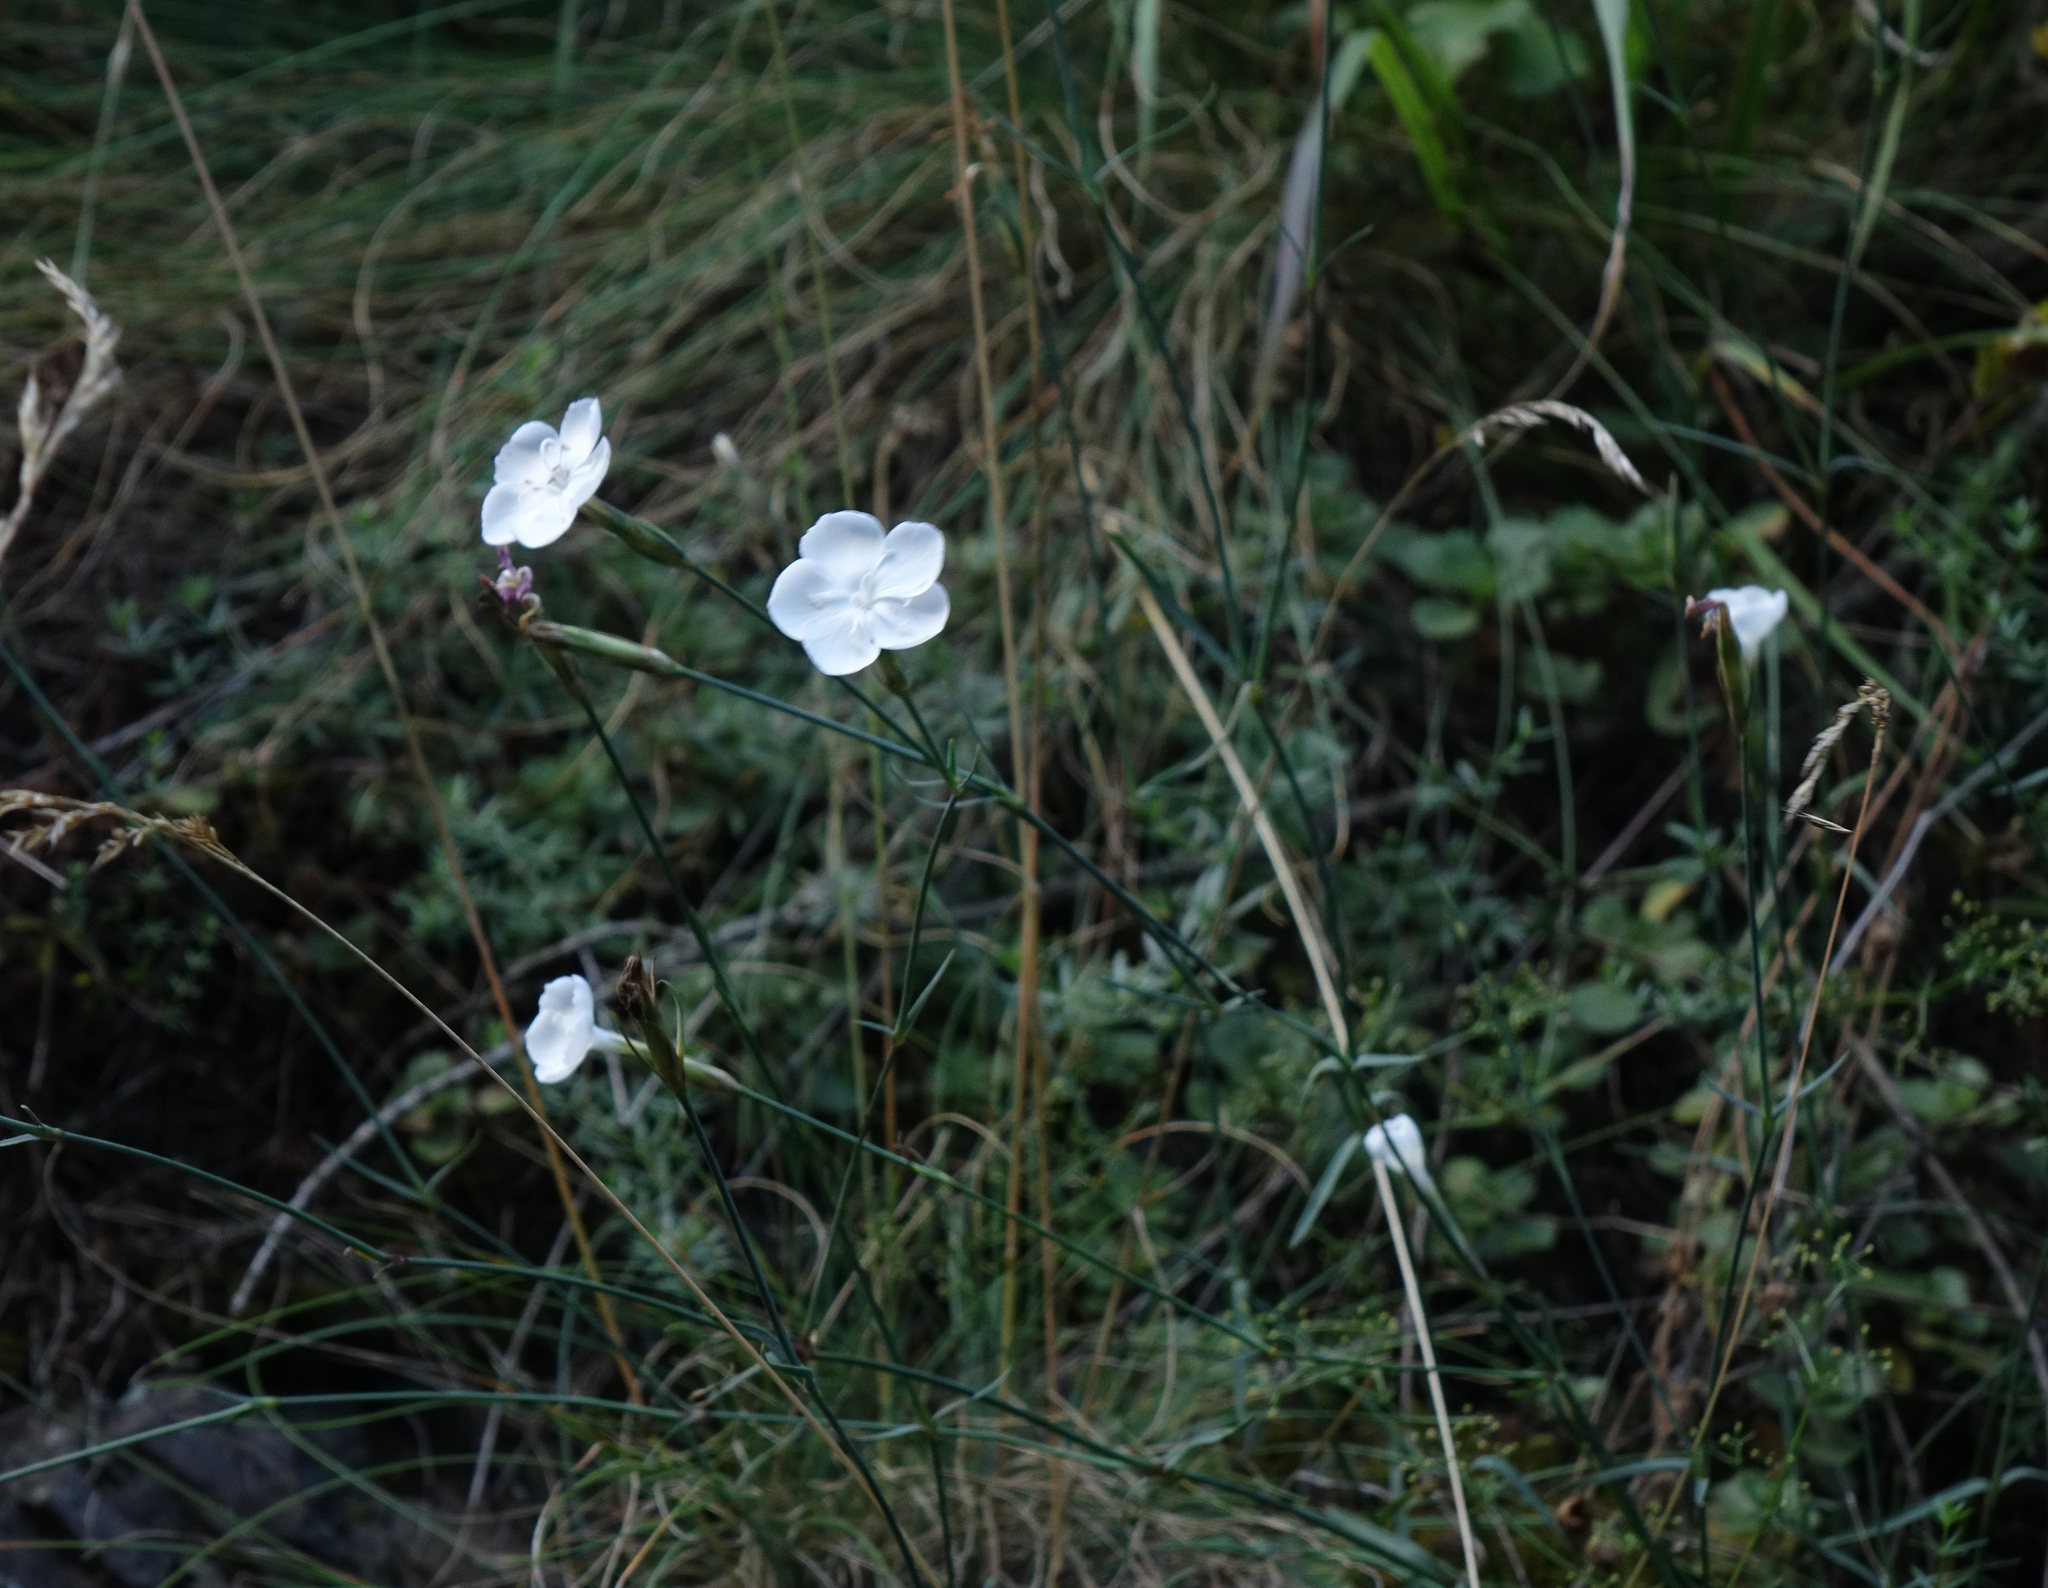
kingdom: Plantae
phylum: Tracheophyta
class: Magnoliopsida
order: Caryophyllales
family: Caryophyllaceae
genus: Dianthus
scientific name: Dianthus cretaceus
